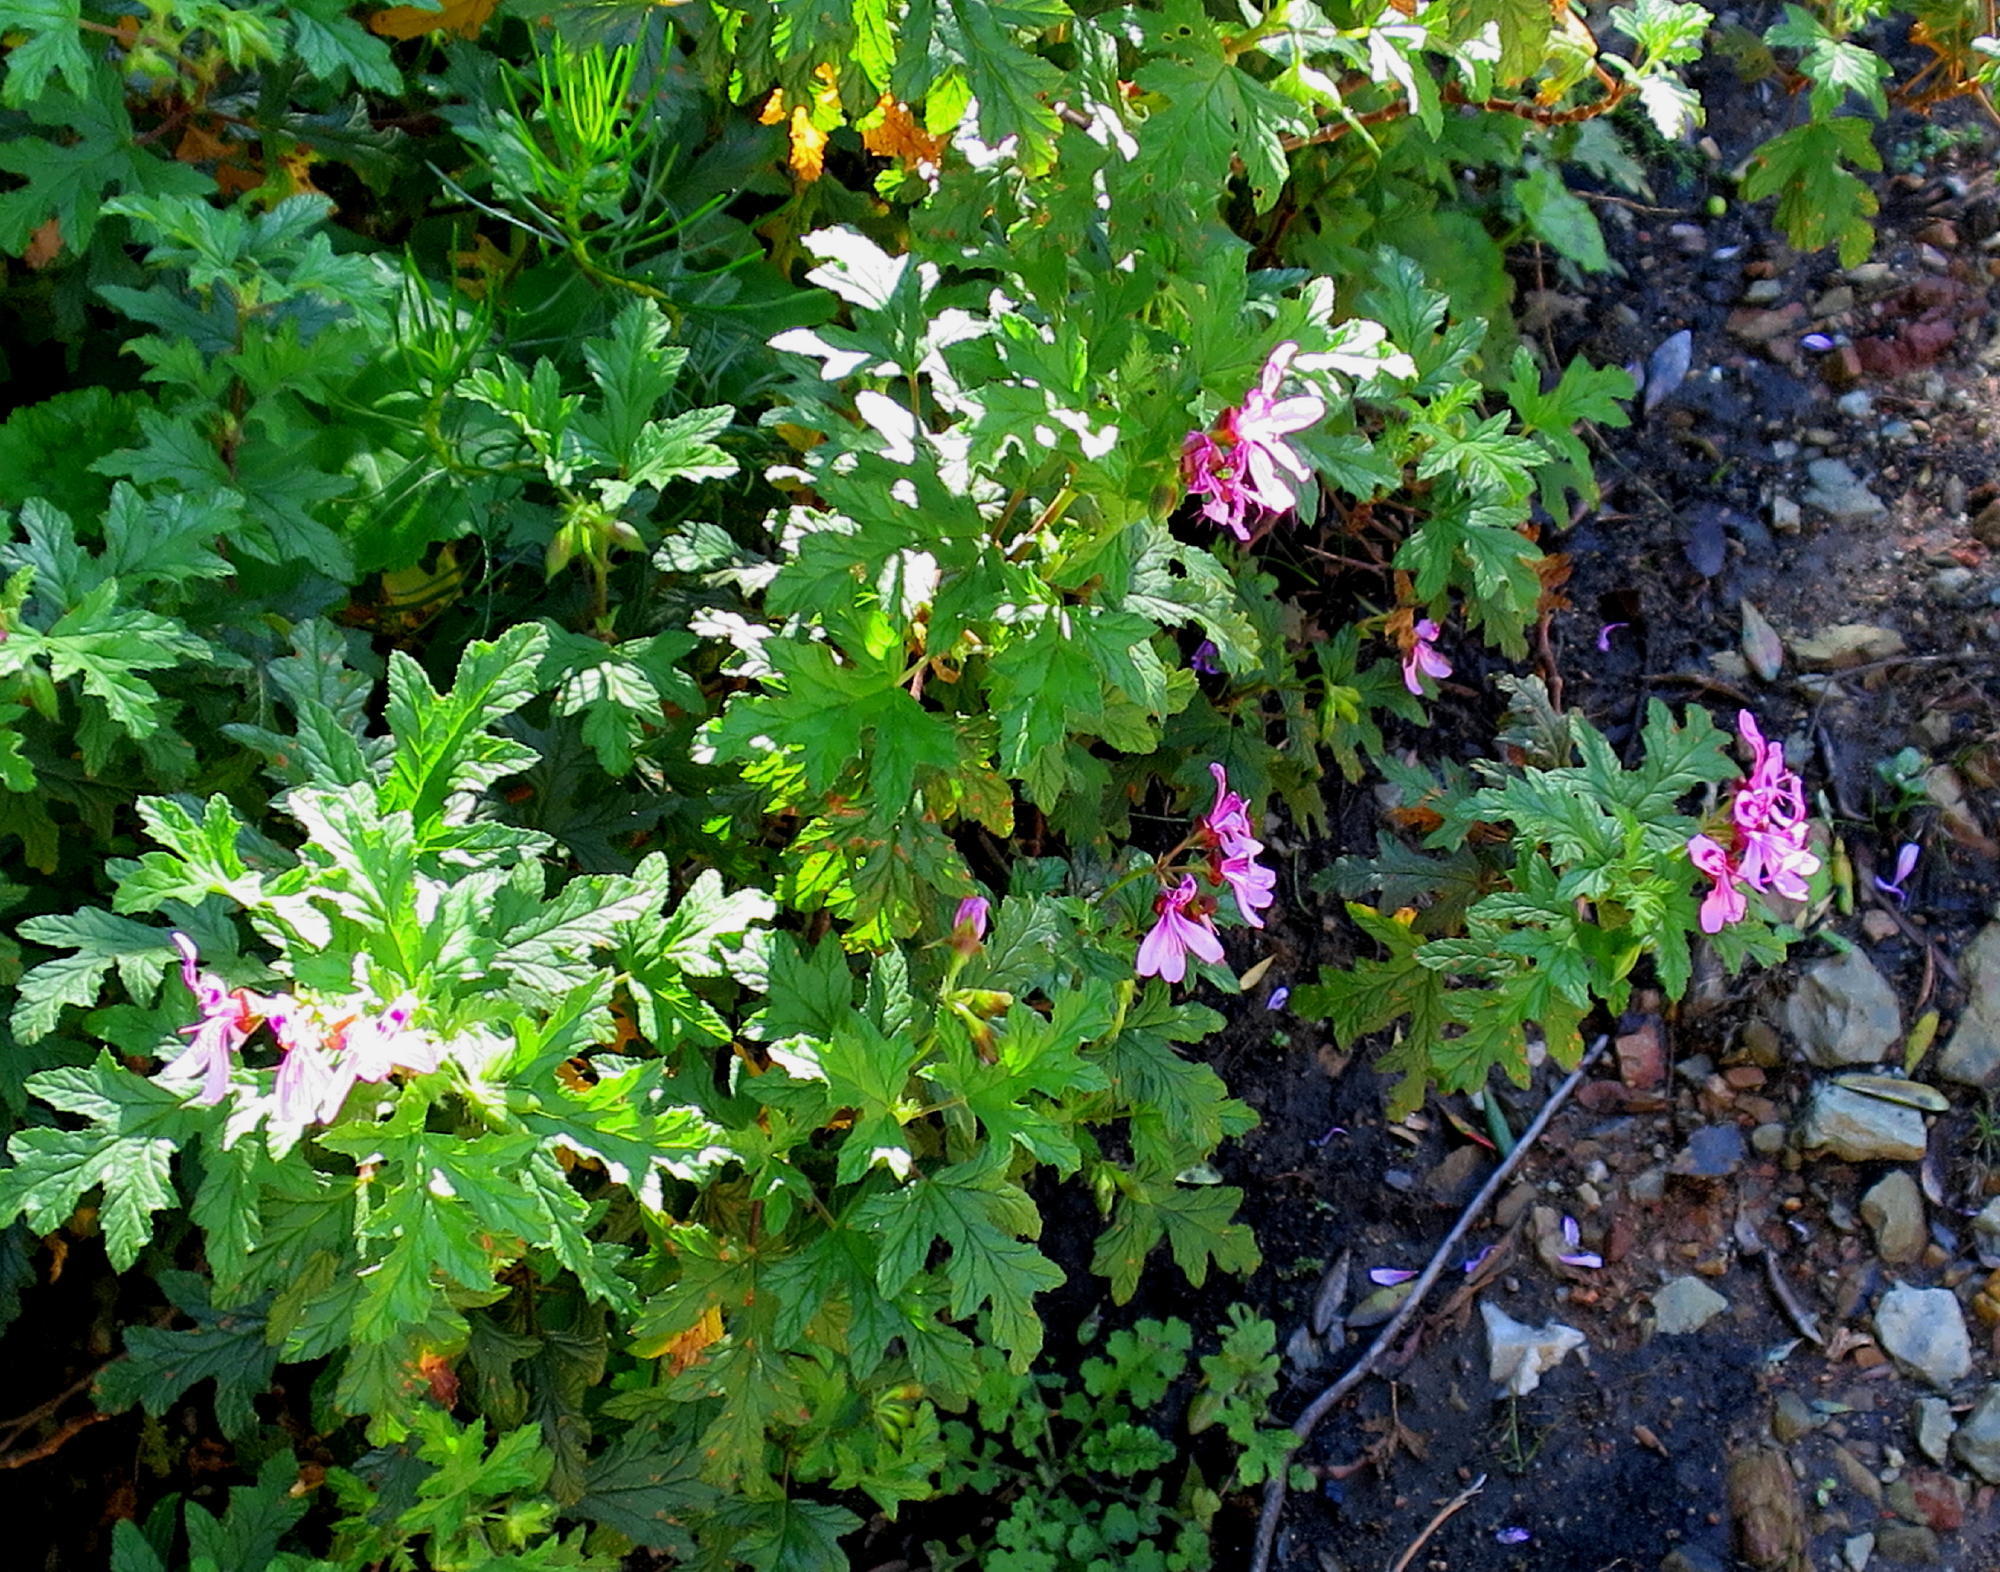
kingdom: Plantae
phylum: Tracheophyta
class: Magnoliopsida
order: Geraniales
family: Geraniaceae
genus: Pelargonium
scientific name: Pelargonium glutinosum
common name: Pheasant-foot geranium
